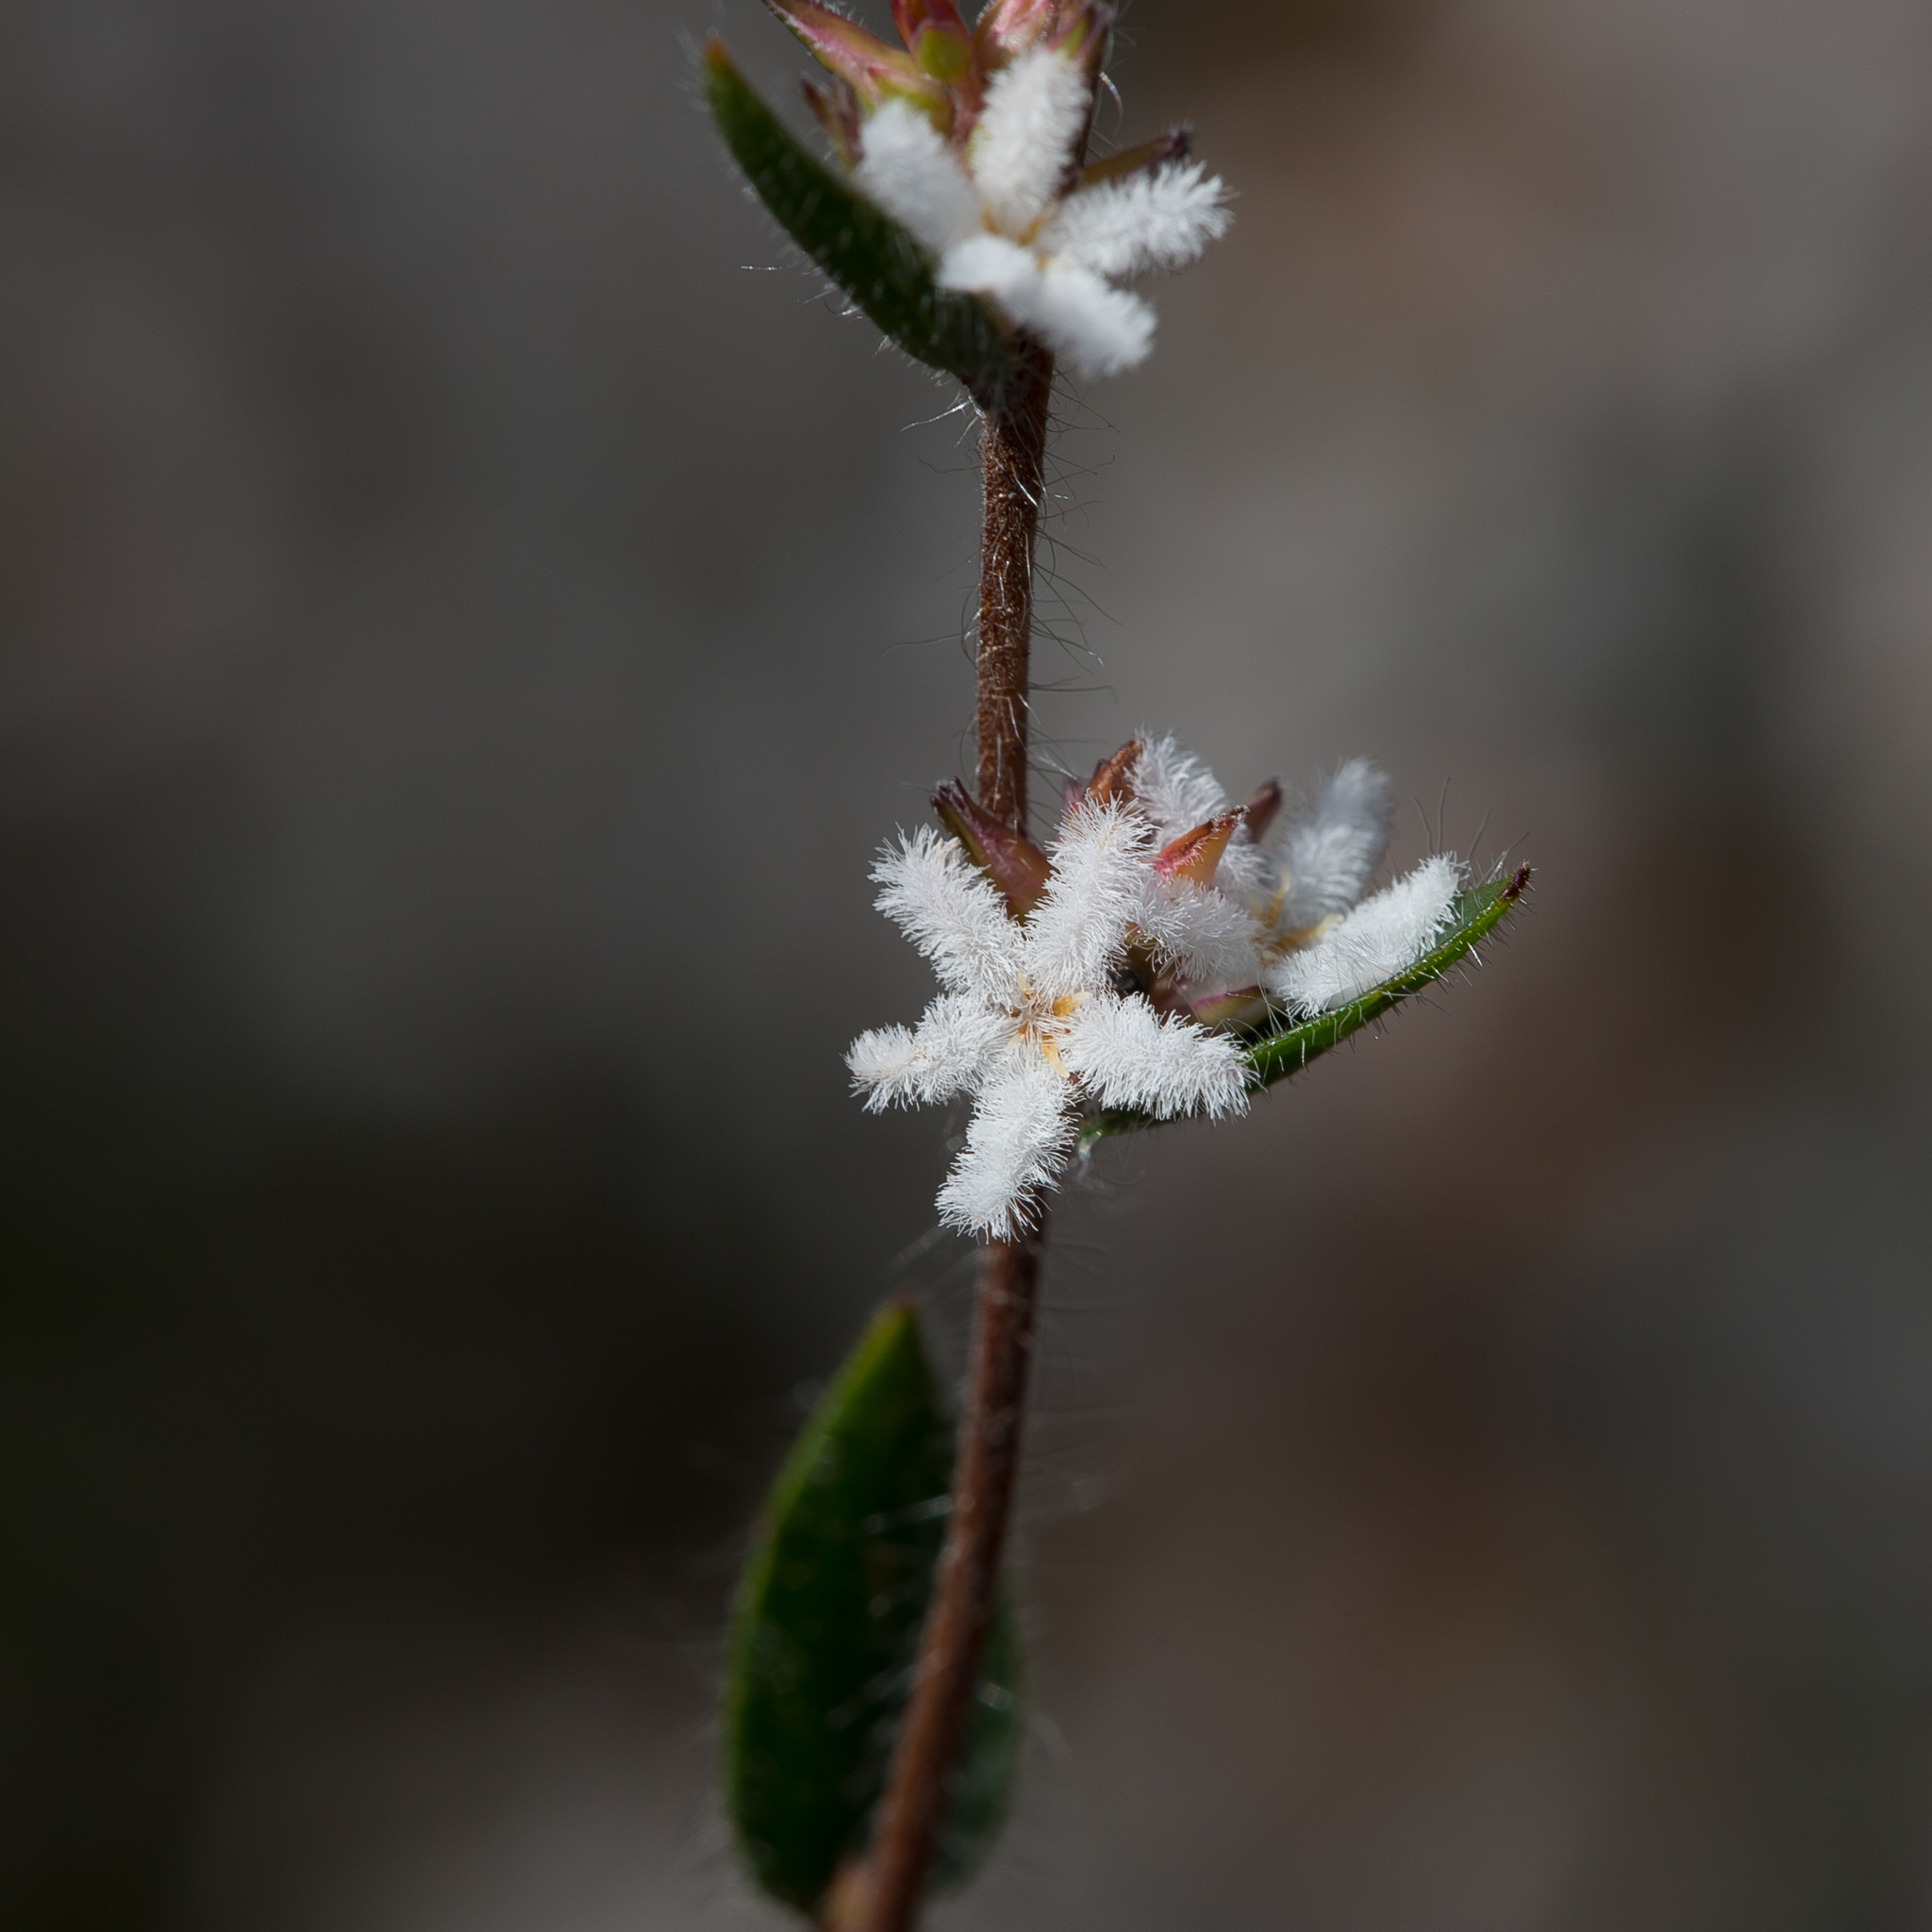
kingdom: Plantae
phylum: Tracheophyta
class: Magnoliopsida
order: Ericales
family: Ericaceae
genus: Leucopogon
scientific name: Leucopogon concurvus
